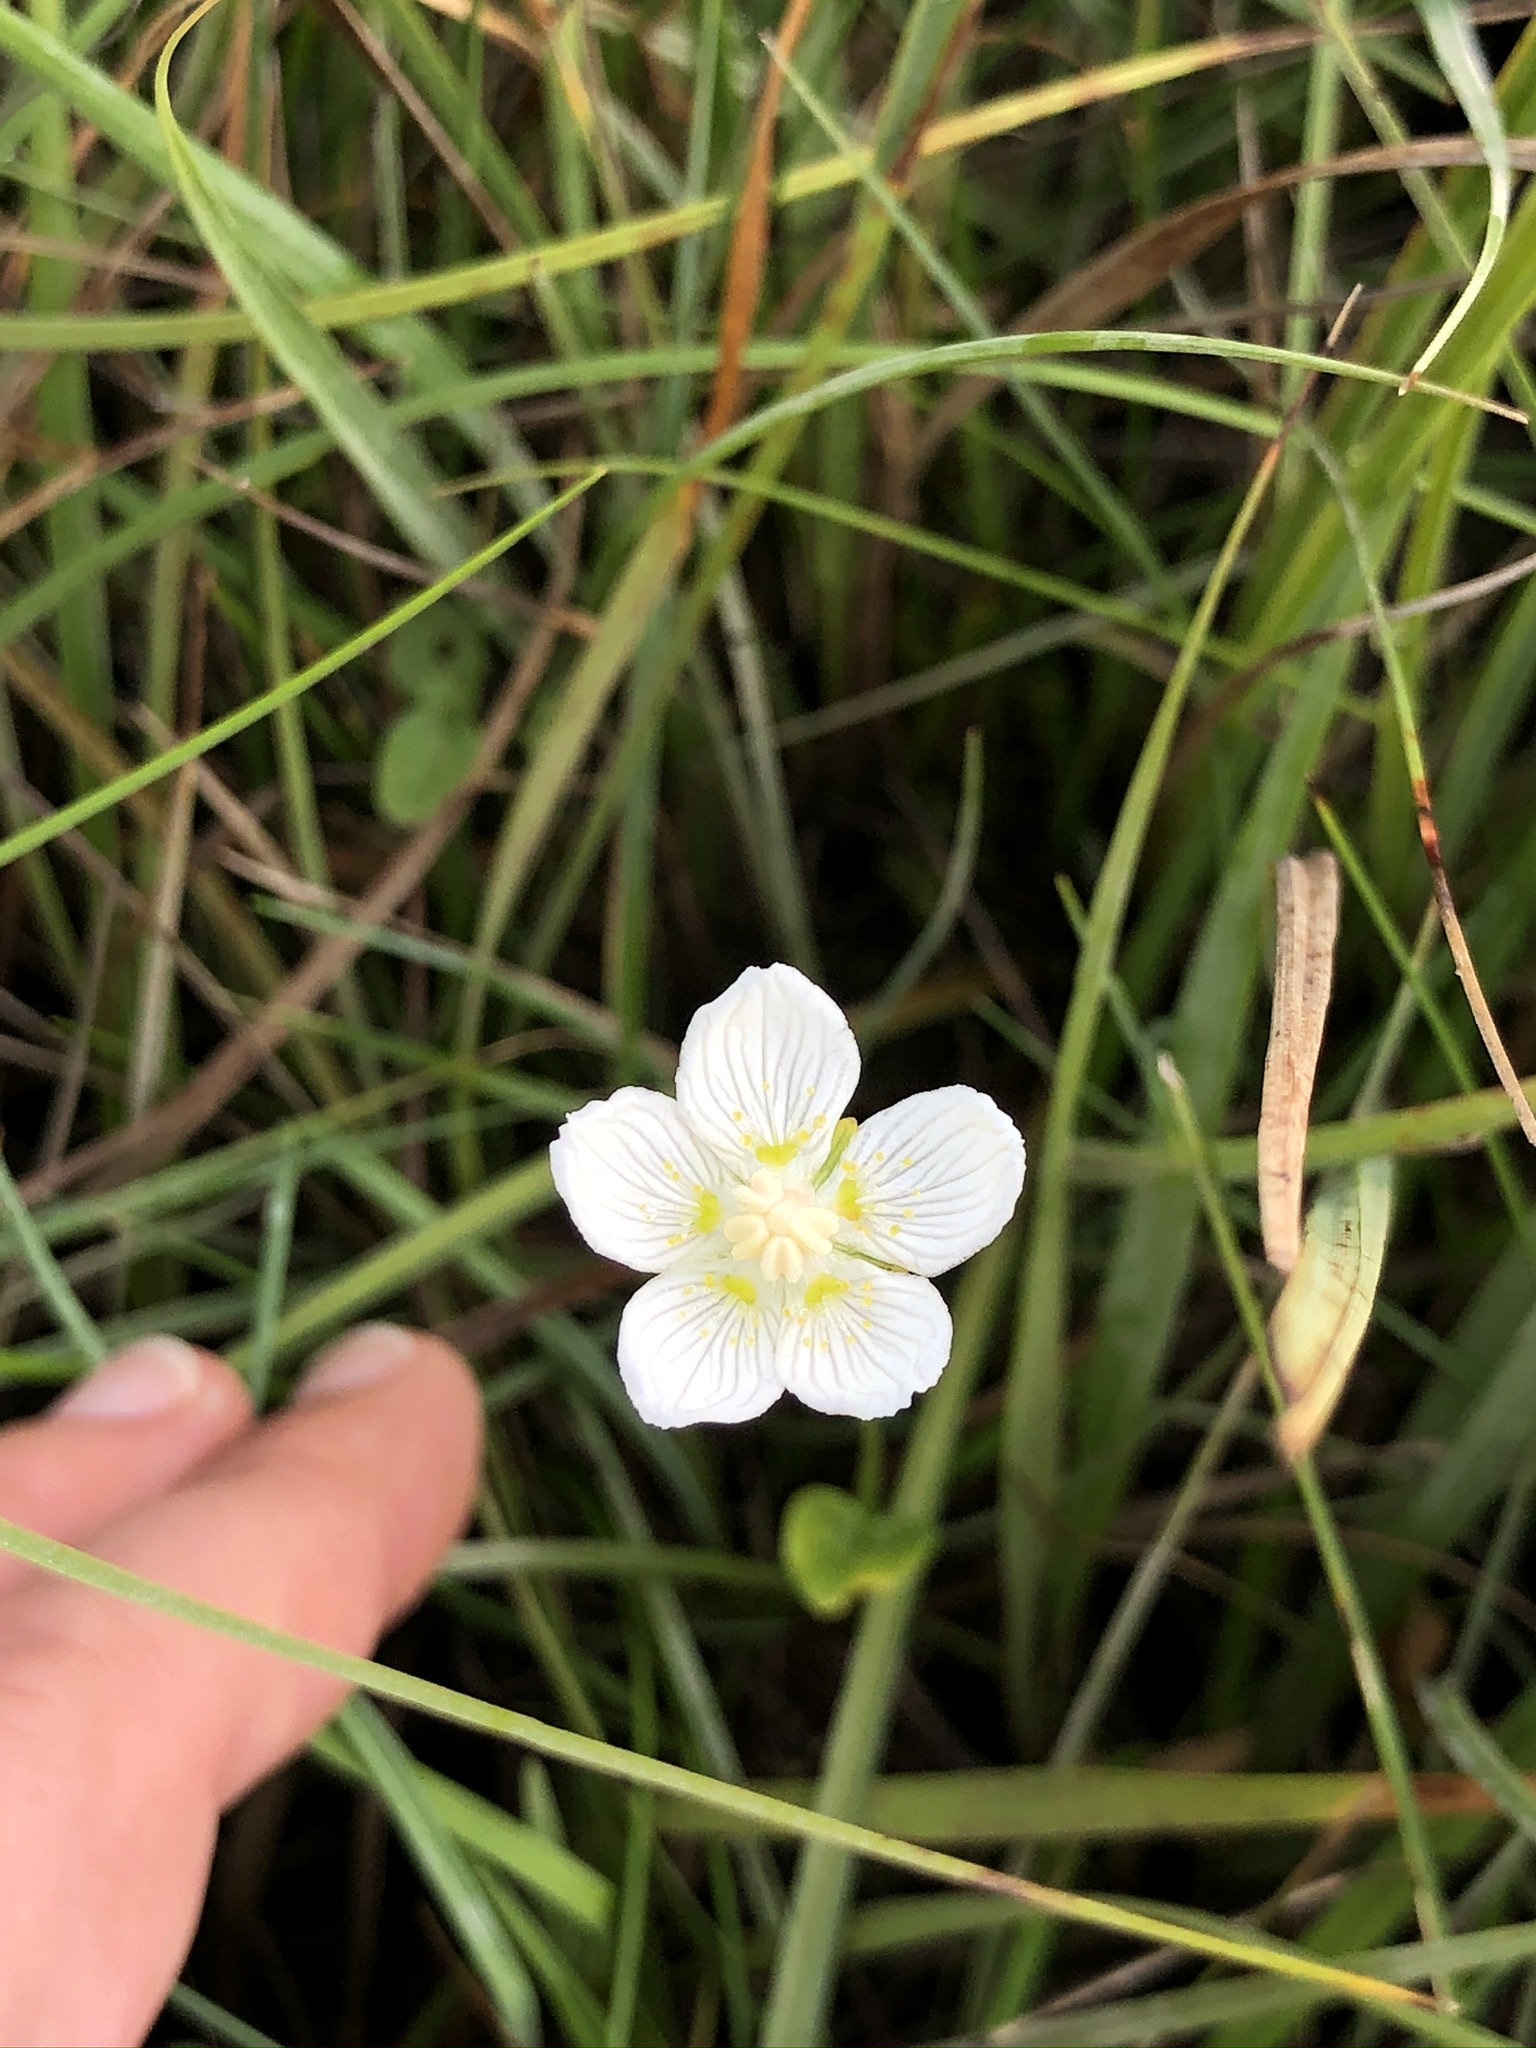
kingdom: Plantae
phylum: Tracheophyta
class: Magnoliopsida
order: Celastrales
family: Parnassiaceae
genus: Parnassia
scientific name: Parnassia palustris
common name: Grass-of-parnassus
